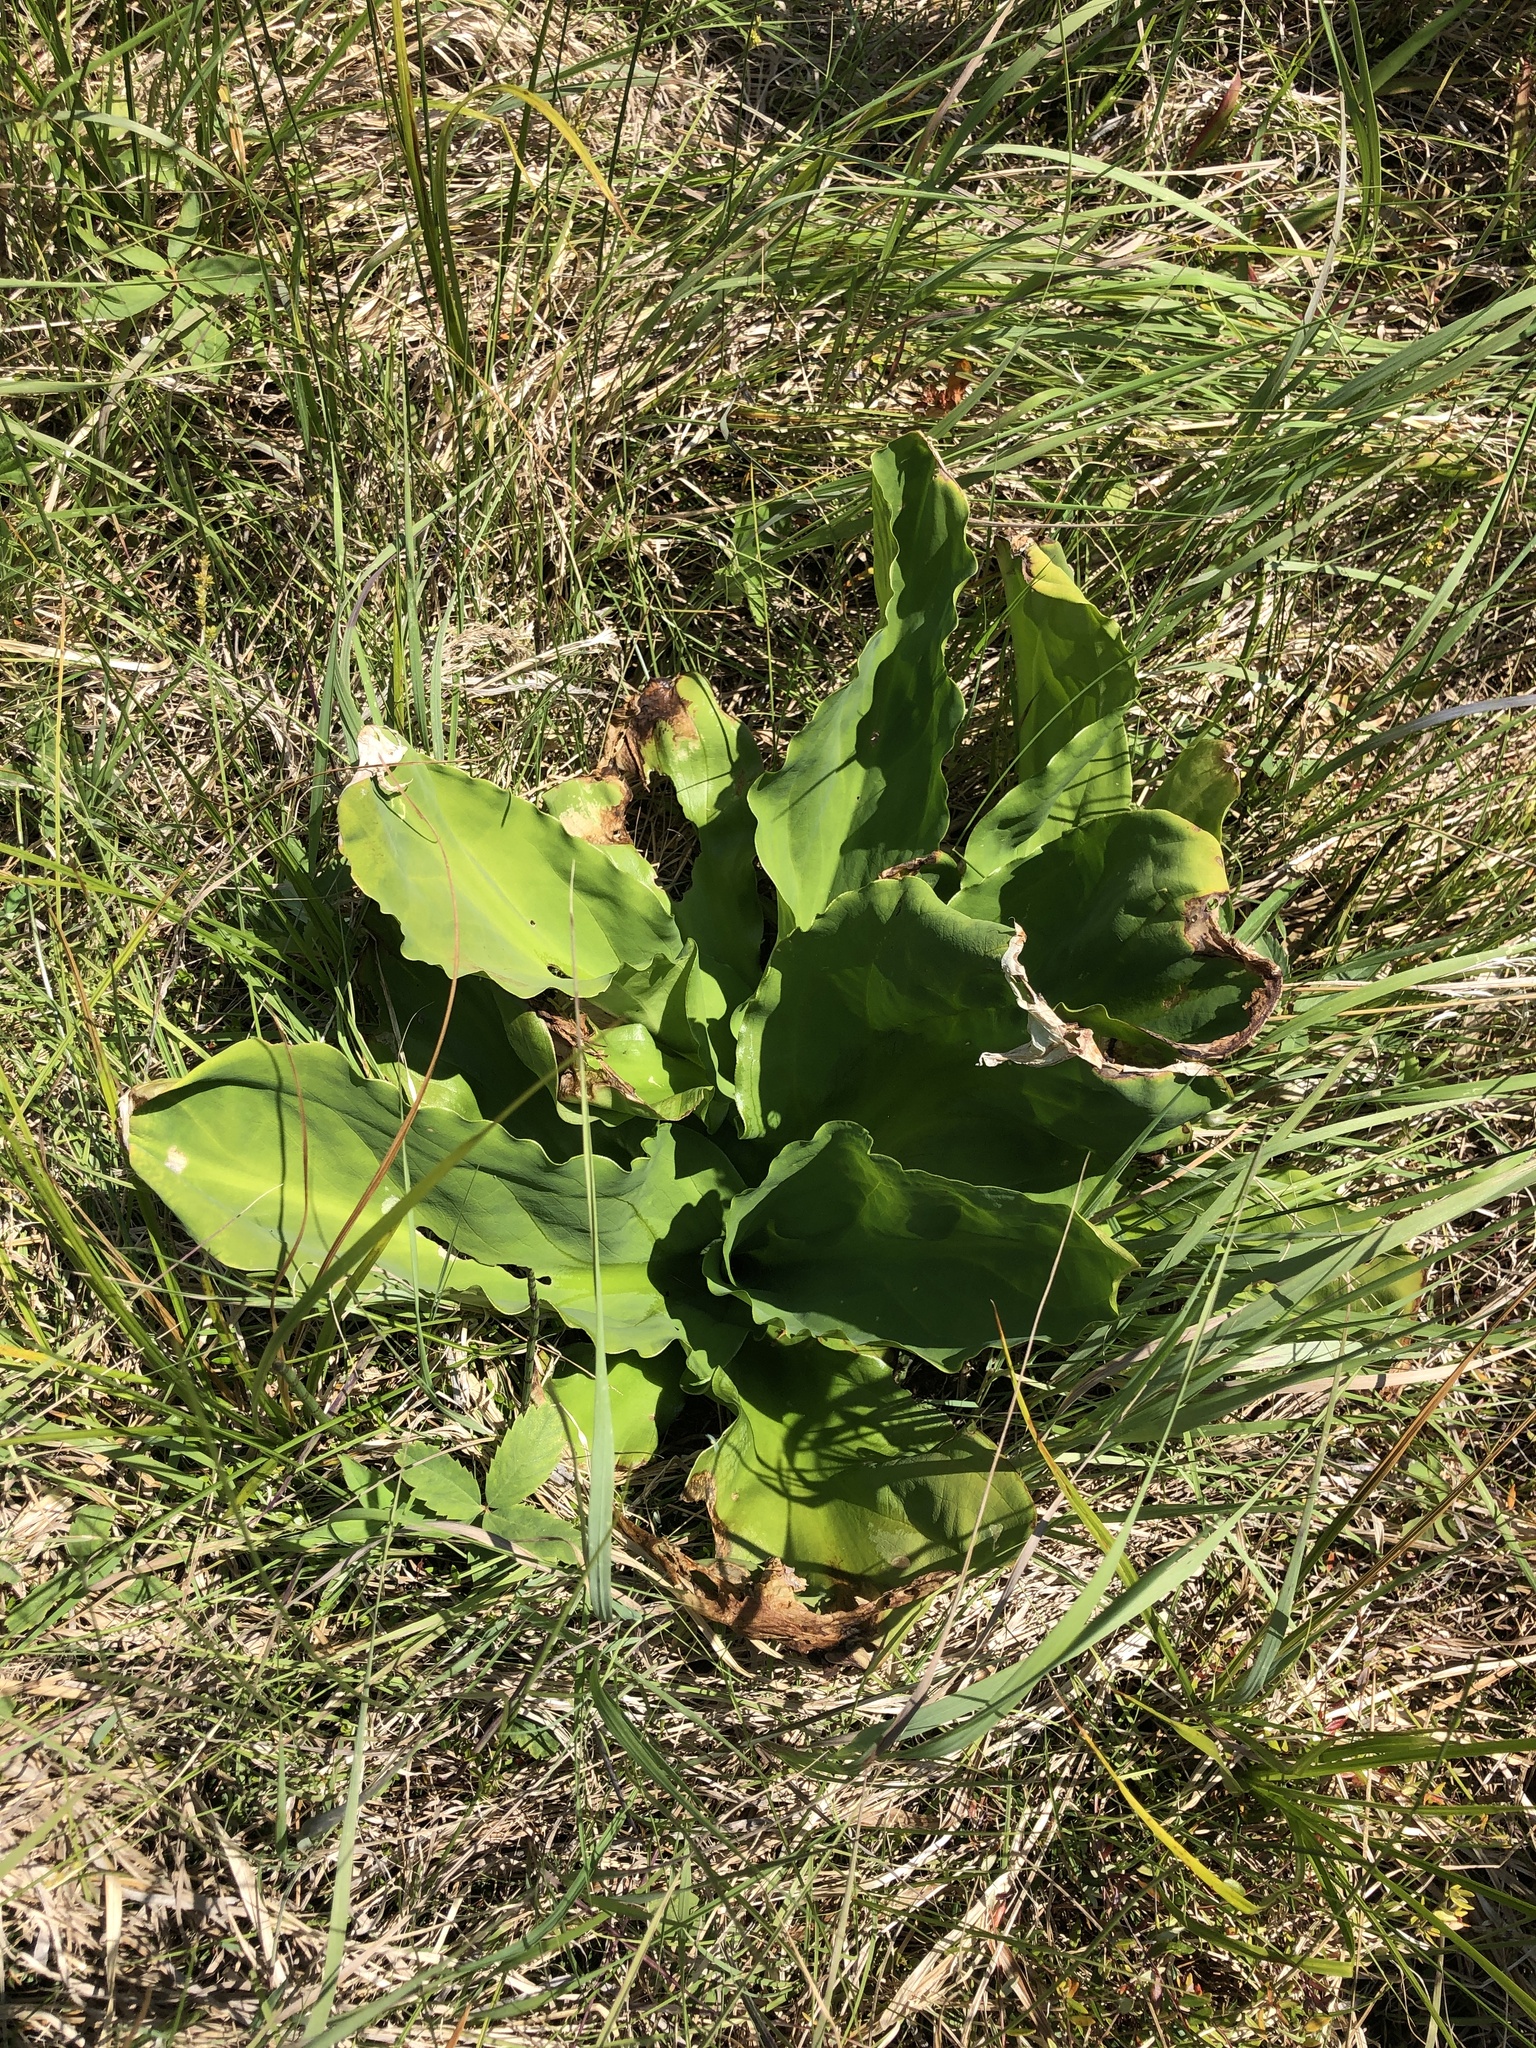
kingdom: Plantae
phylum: Tracheophyta
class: Liliopsida
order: Alismatales
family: Araceae
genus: Lysichiton
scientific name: Lysichiton americanus
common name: American skunk cabbage
